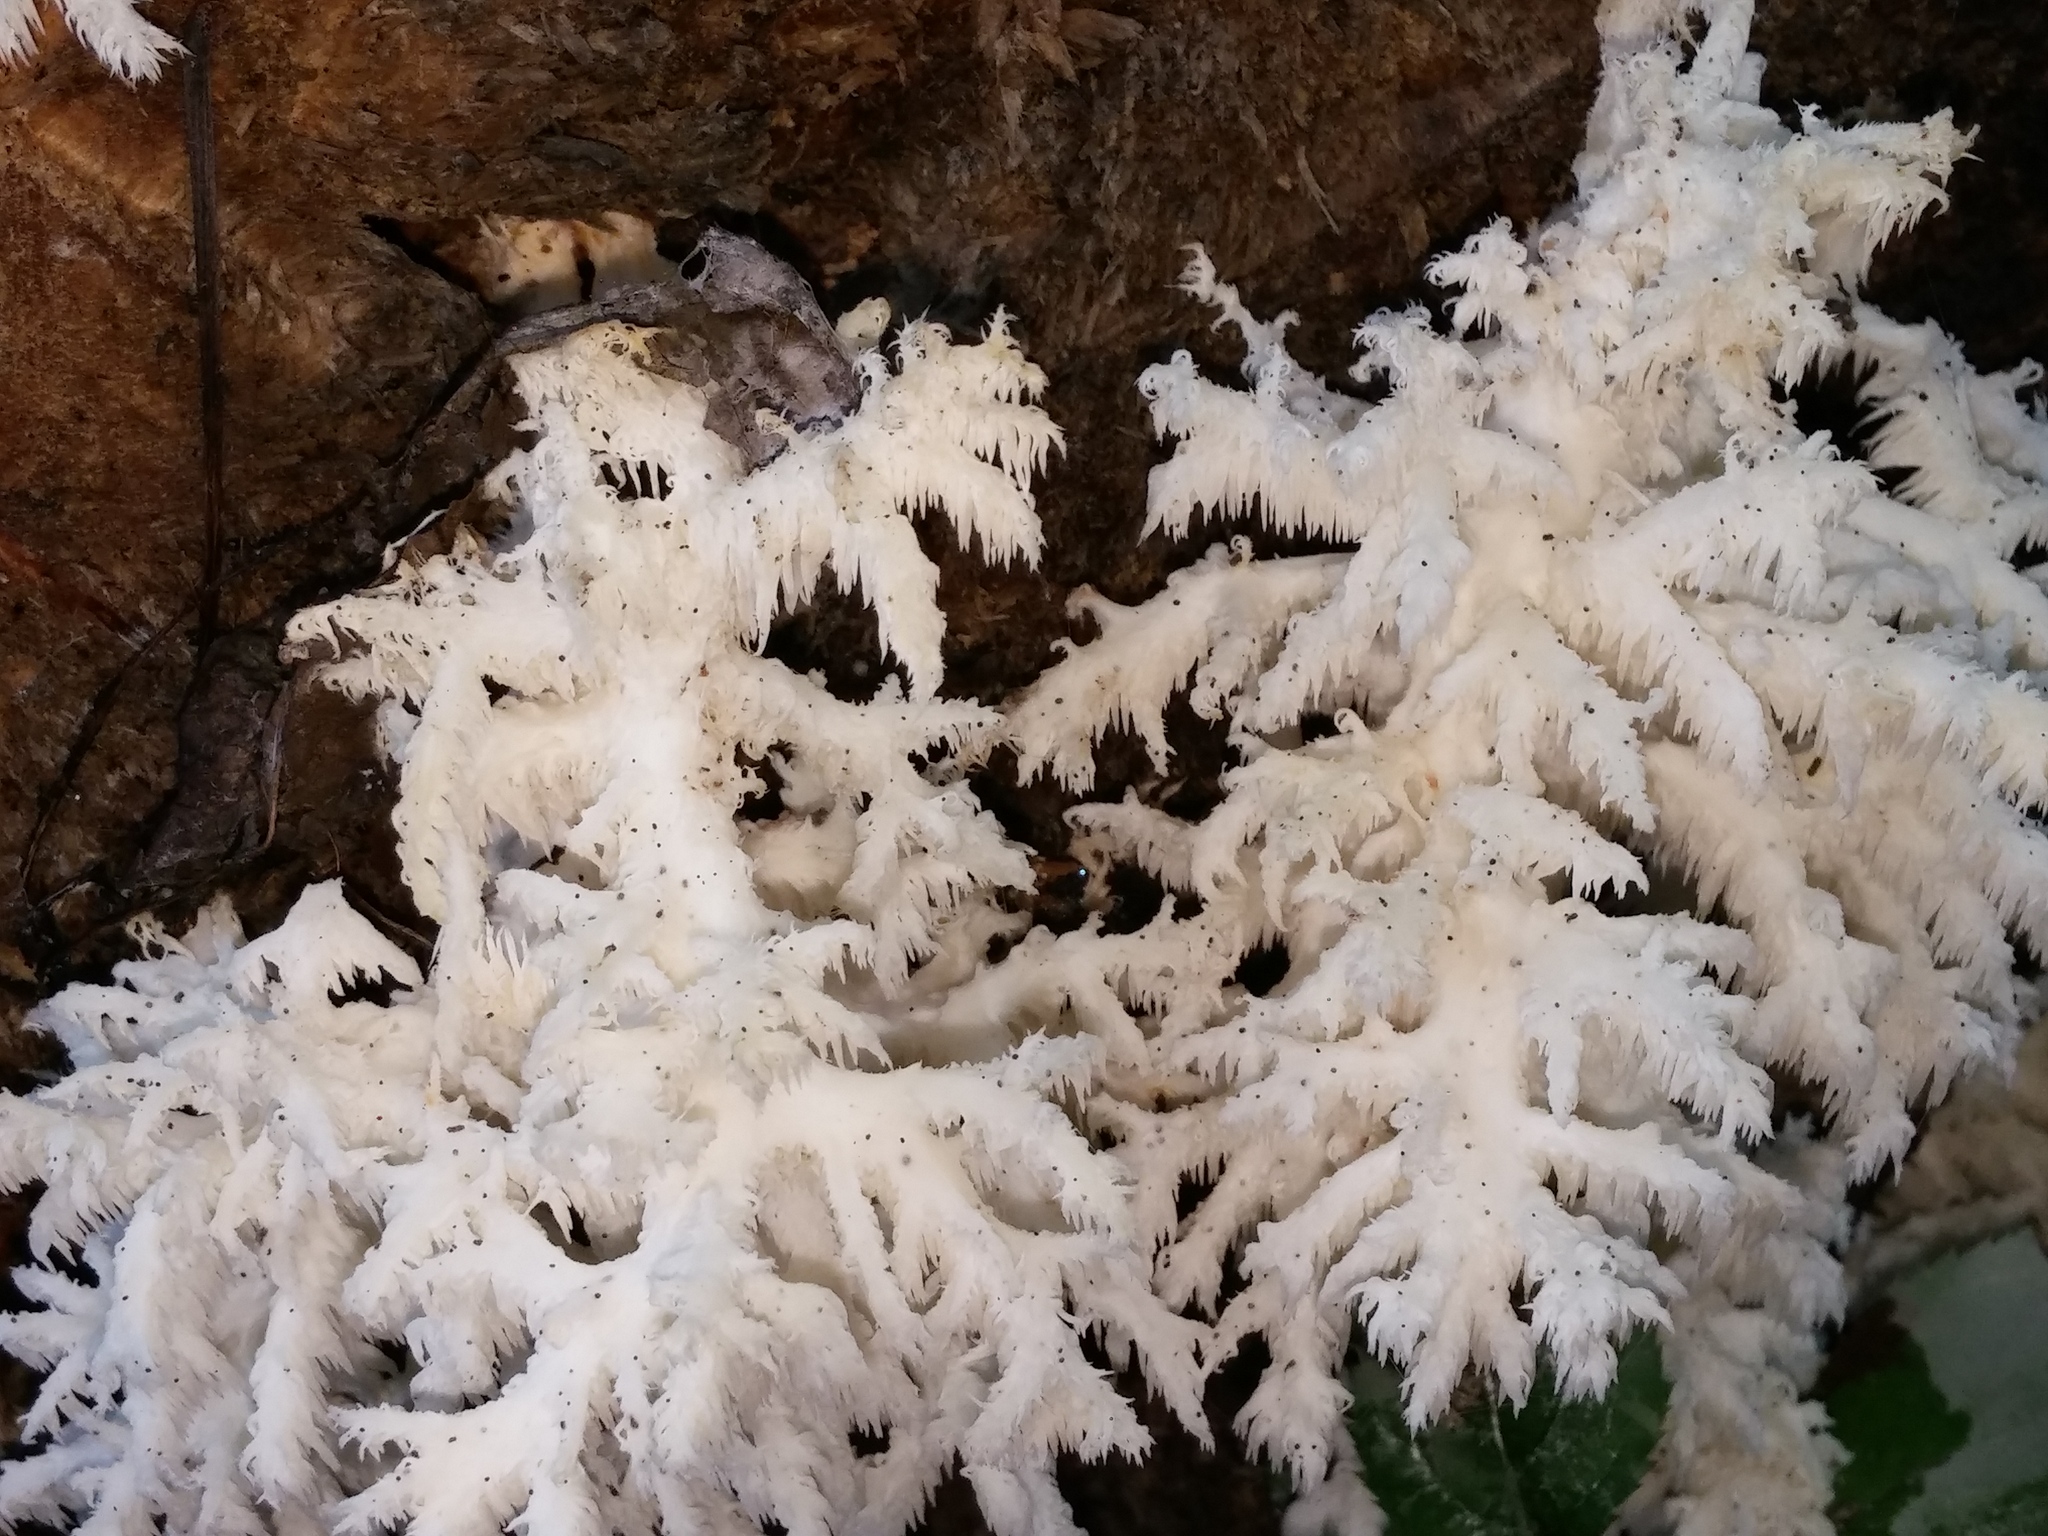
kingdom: Fungi
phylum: Basidiomycota
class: Agaricomycetes
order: Russulales
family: Hericiaceae
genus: Hericium
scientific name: Hericium coralloides
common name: Coral tooth
